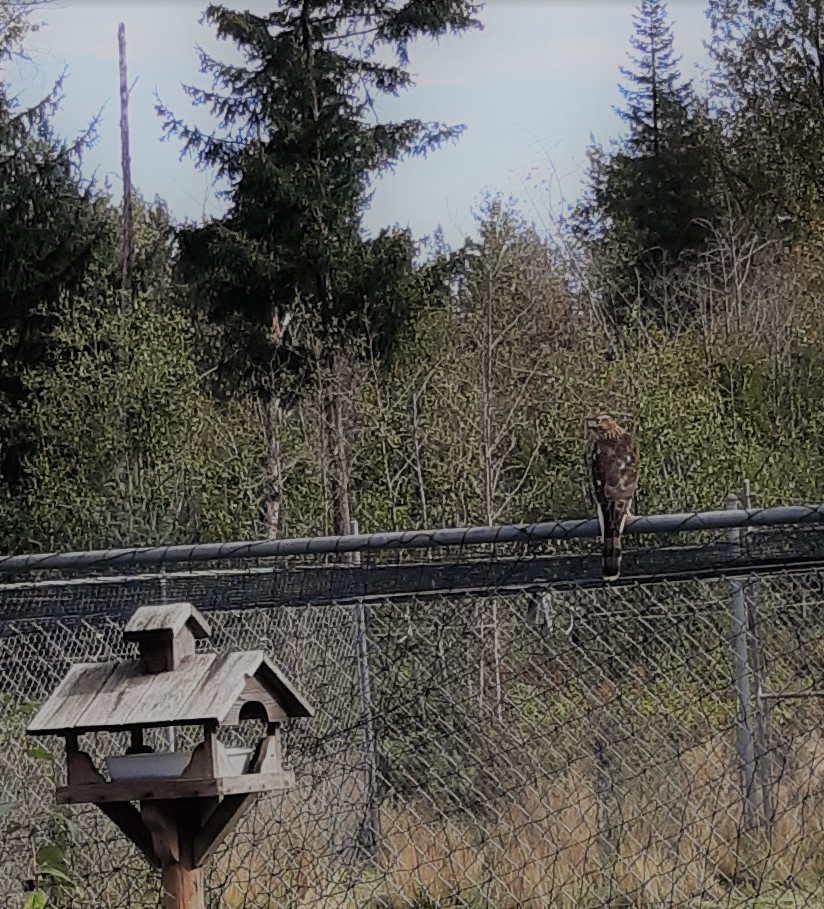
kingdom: Animalia
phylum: Chordata
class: Aves
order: Accipitriformes
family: Accipitridae
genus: Accipiter
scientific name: Accipiter cooperii
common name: Cooper's hawk
